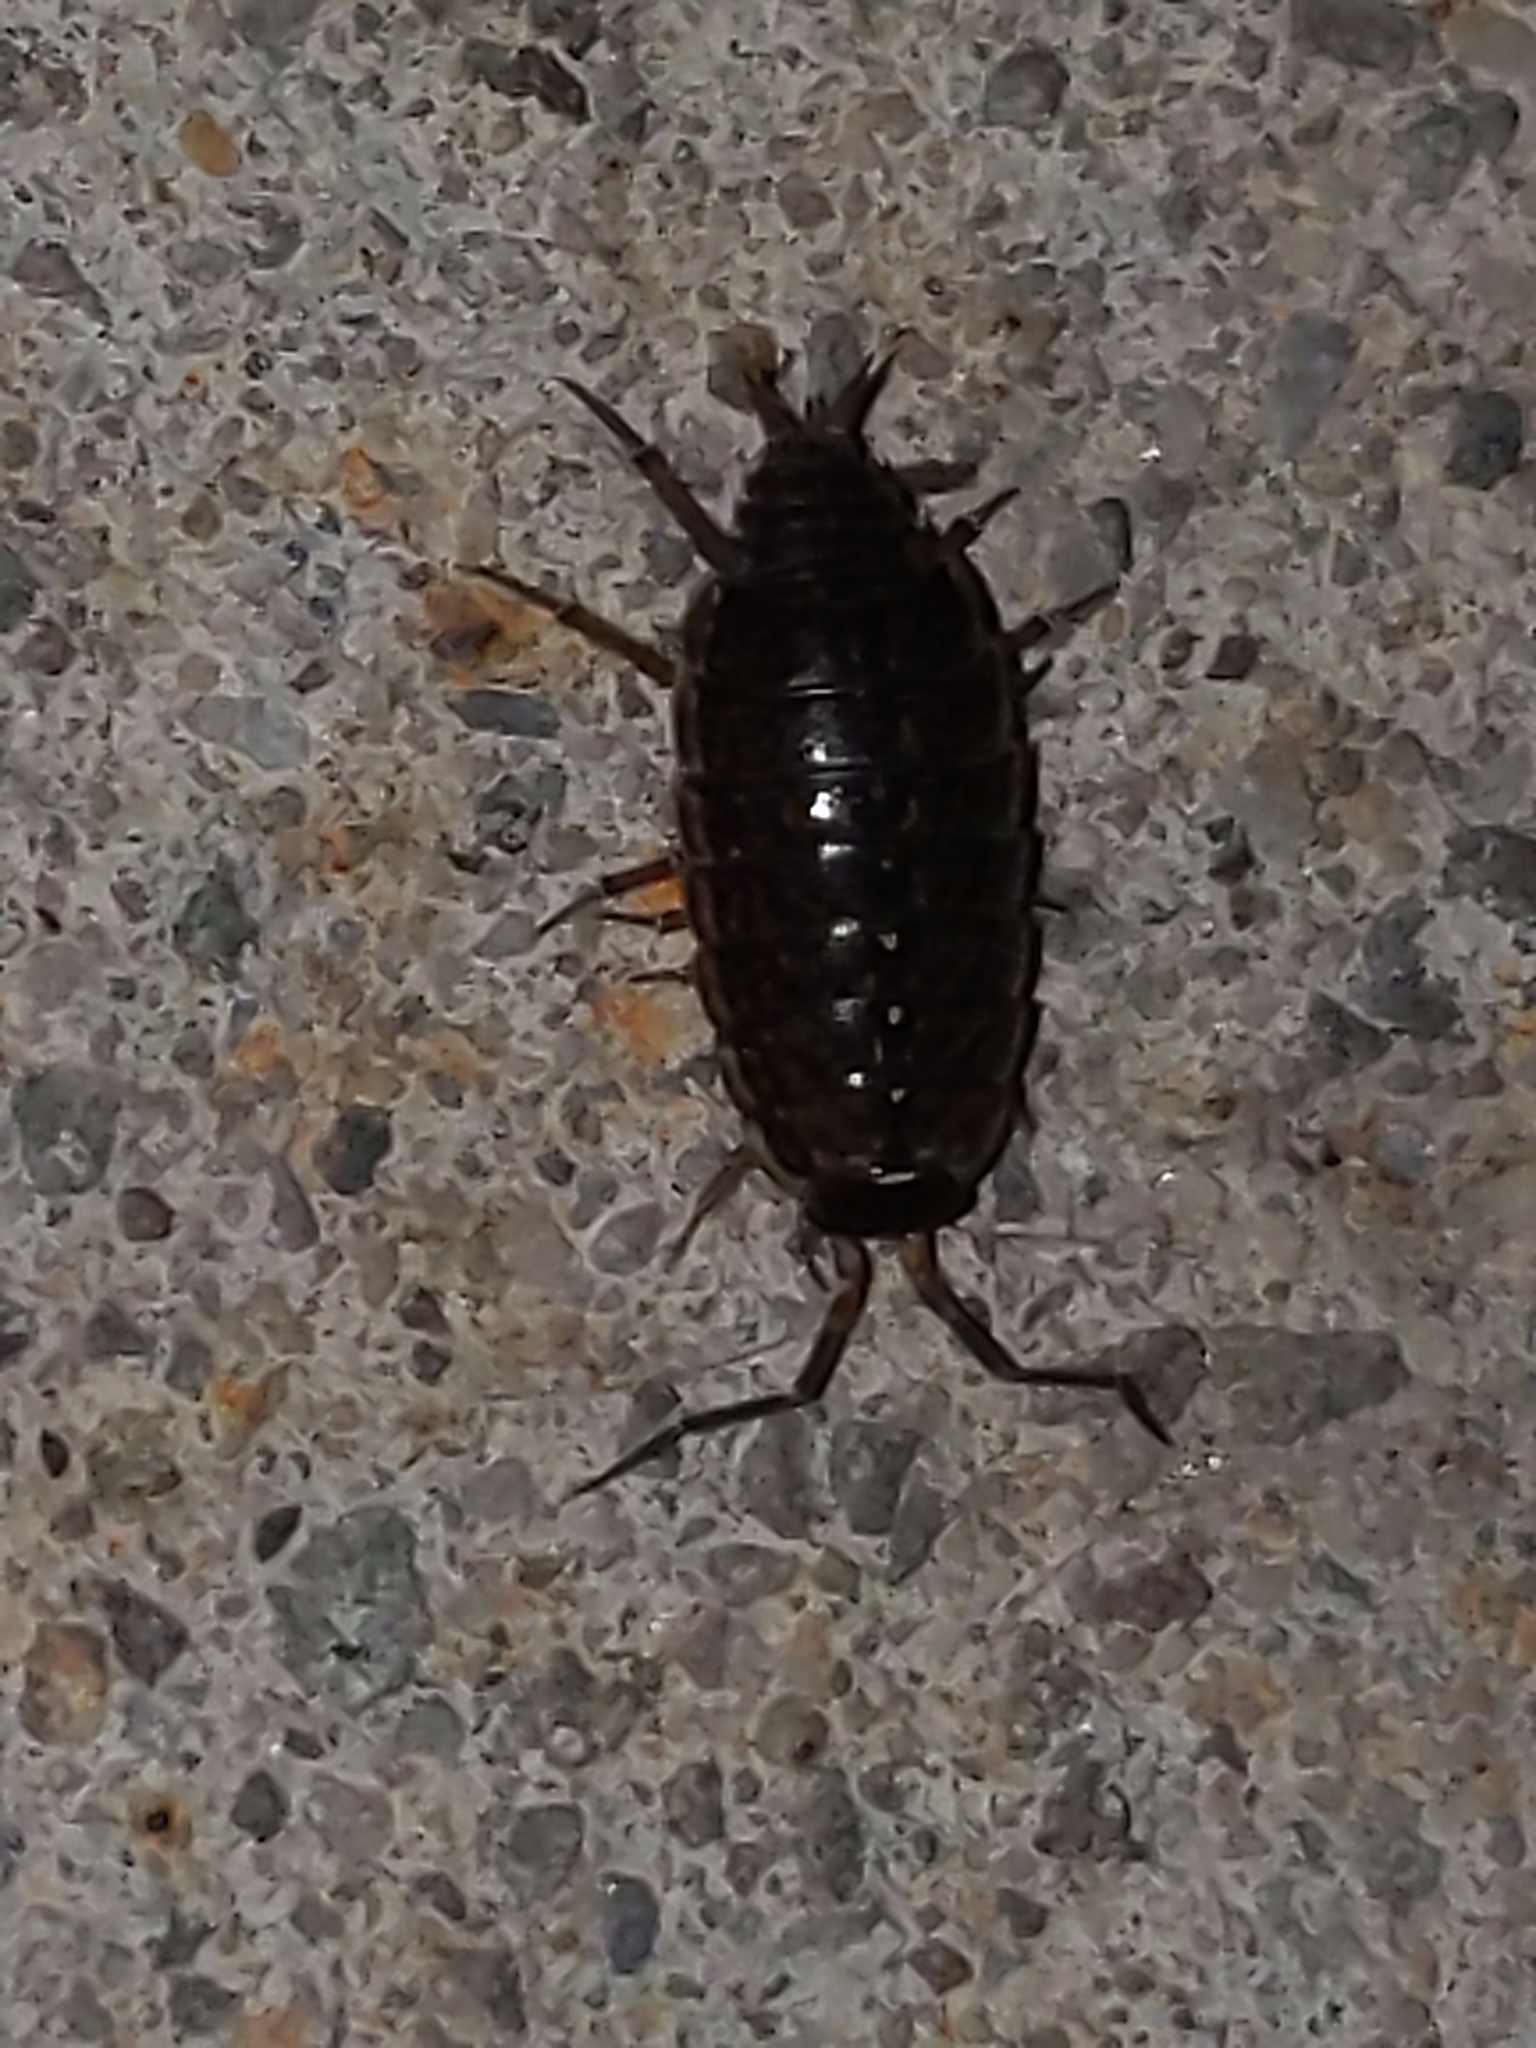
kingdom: Animalia
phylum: Arthropoda
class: Malacostraca
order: Isopoda
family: Philosciidae
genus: Philoscia
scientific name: Philoscia muscorum
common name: Common striped woodlouse
